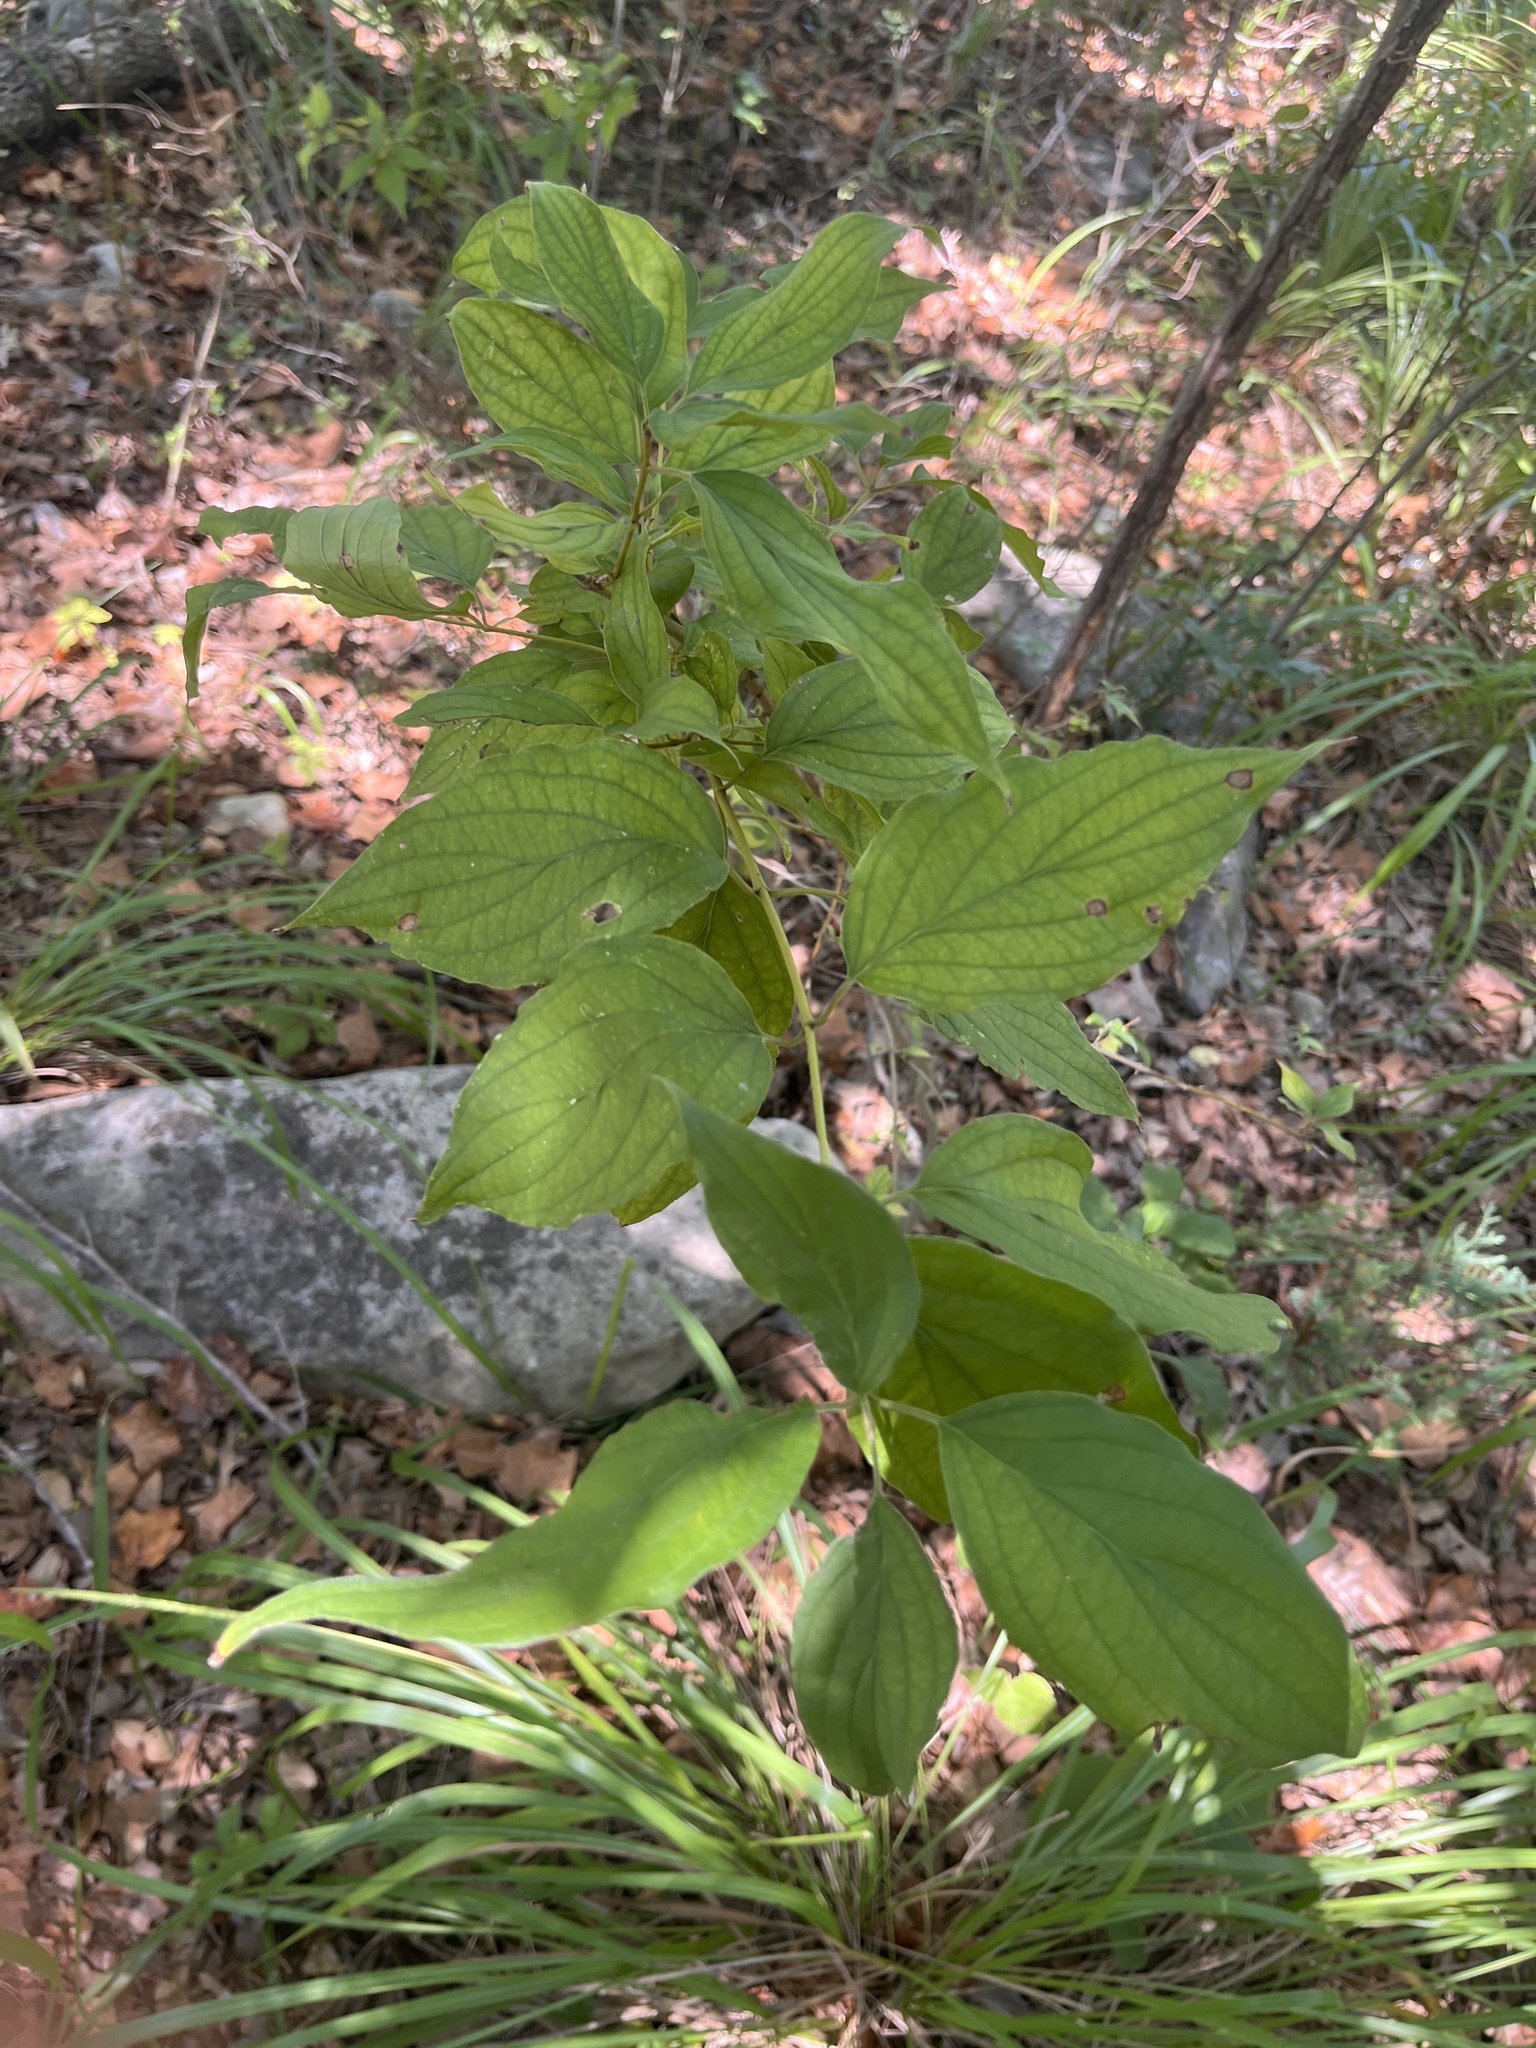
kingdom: Plantae
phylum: Tracheophyta
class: Magnoliopsida
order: Cornales
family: Cornaceae
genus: Cornus
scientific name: Cornus drummondii
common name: Rough-leaf dogwood
